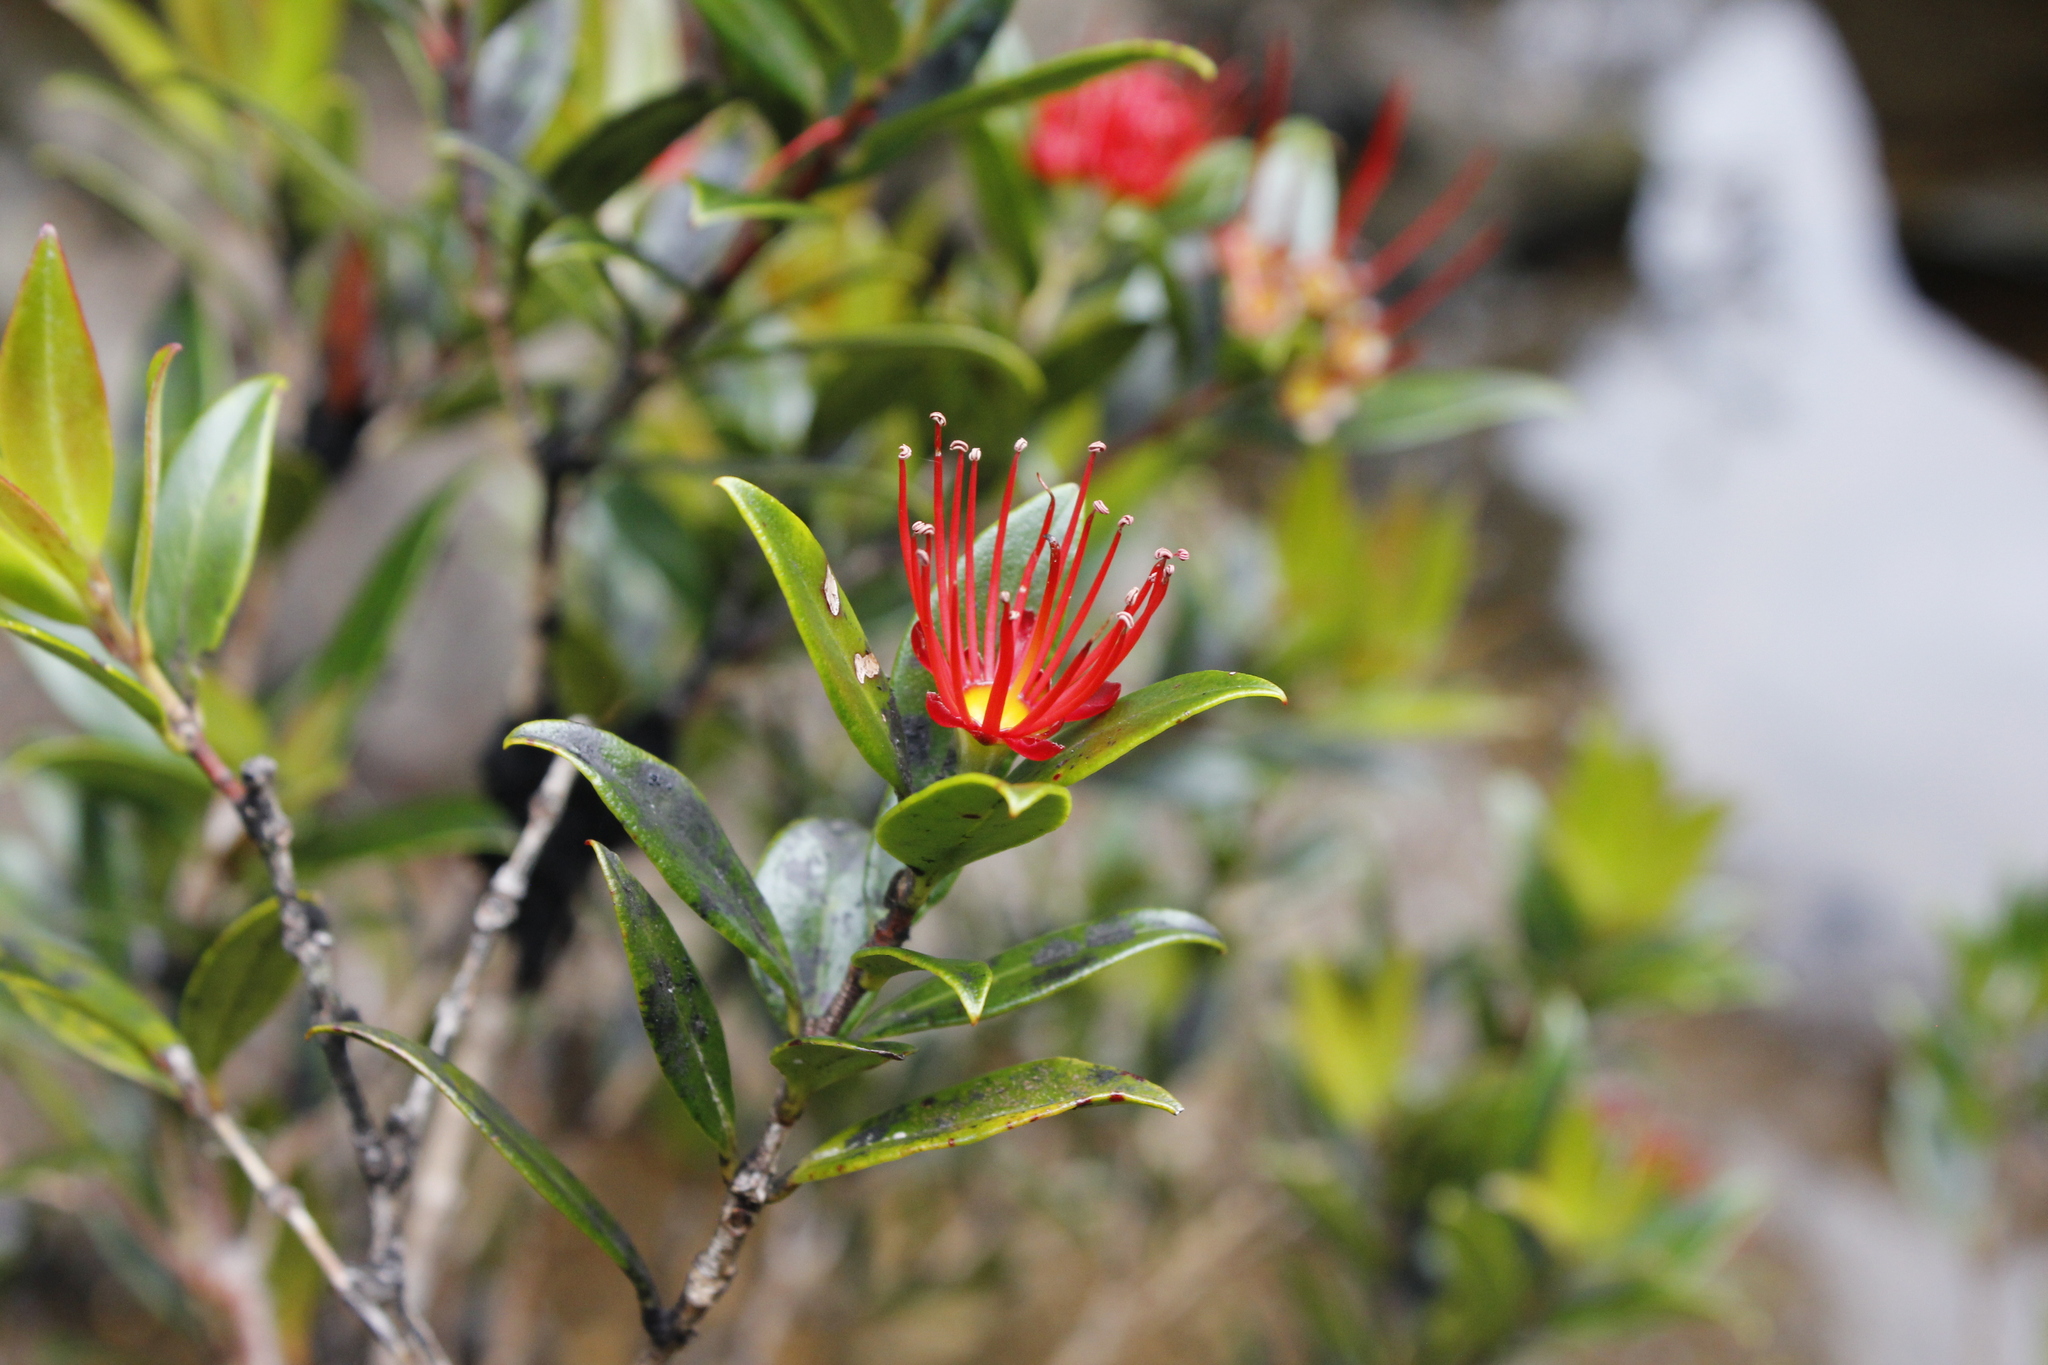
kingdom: Plantae
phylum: Tracheophyta
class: Magnoliopsida
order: Myrtales
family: Myrtaceae
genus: Metrosideros
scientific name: Metrosideros umbellata
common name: Southern rata
